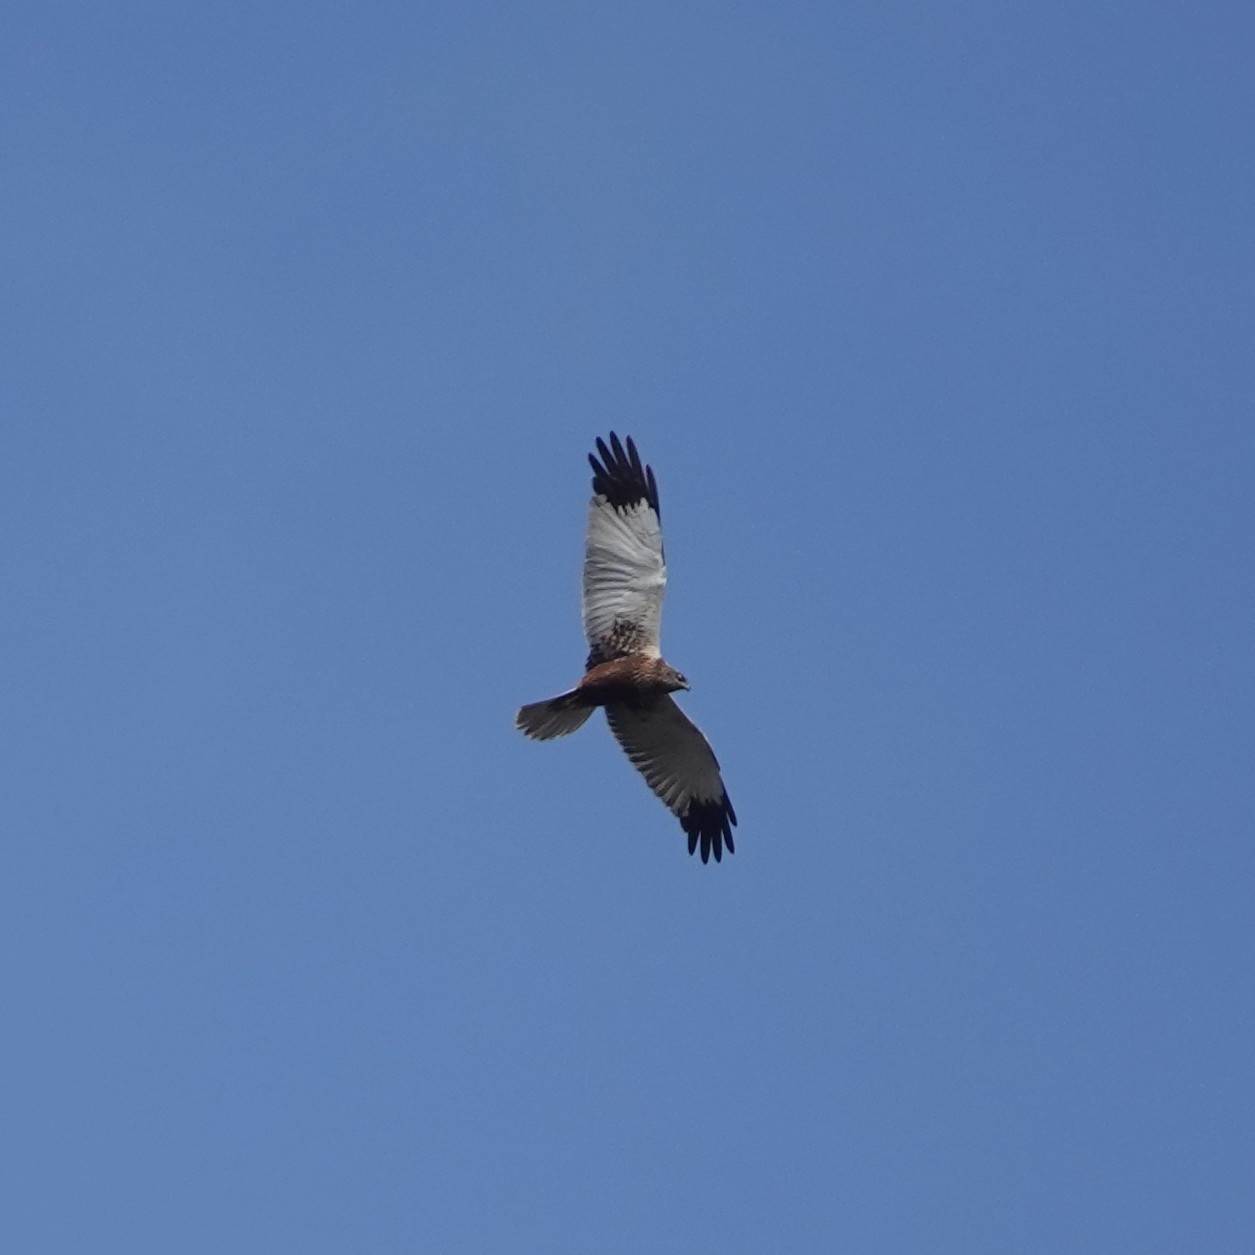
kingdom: Animalia
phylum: Chordata
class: Aves
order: Accipitriformes
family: Accipitridae
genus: Circus
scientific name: Circus aeruginosus
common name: Western marsh harrier
